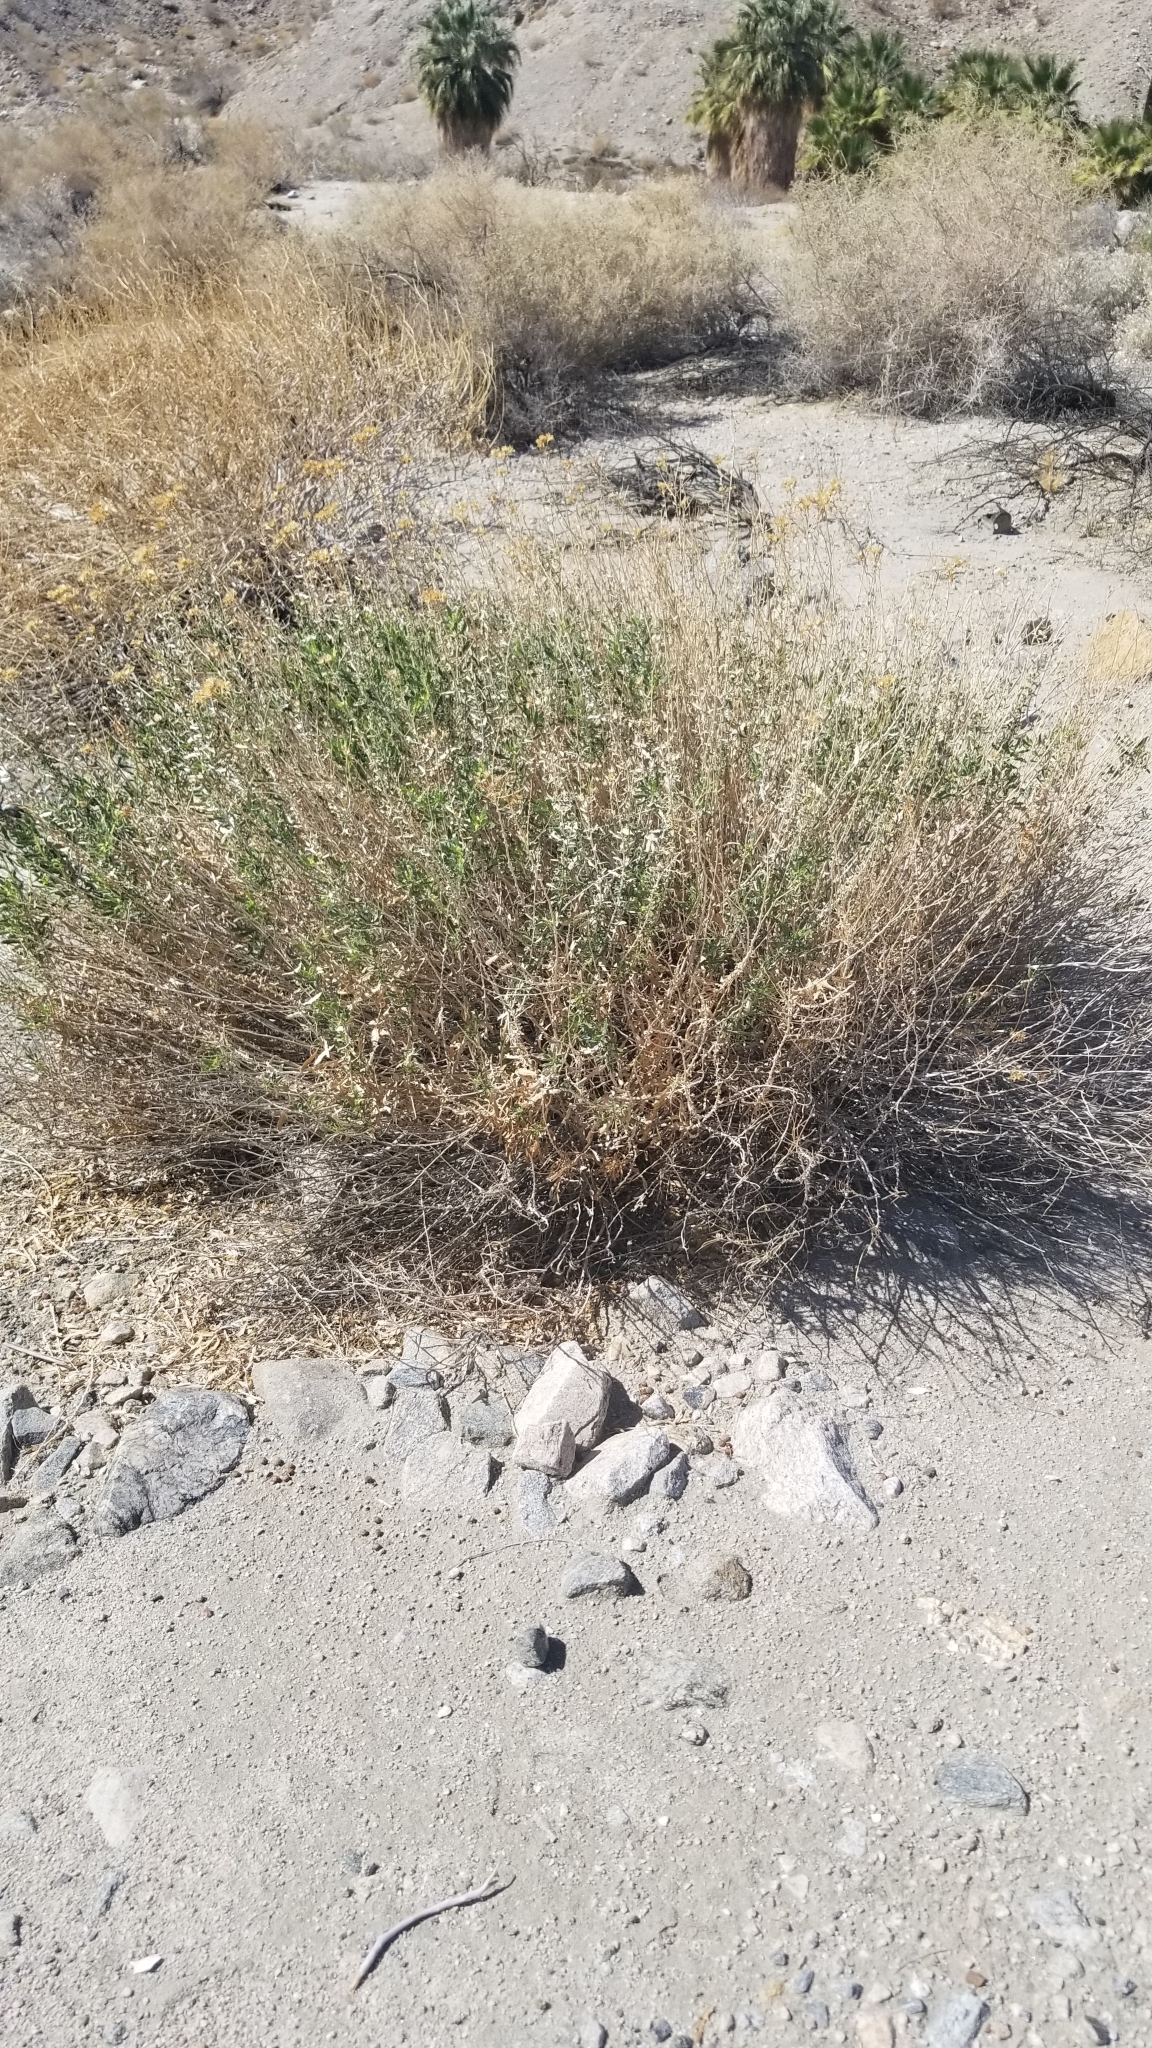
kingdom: Plantae
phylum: Tracheophyta
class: Magnoliopsida
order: Asterales
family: Asteraceae
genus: Isocoma
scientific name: Isocoma acradenia
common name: Alkali jimmyweed
